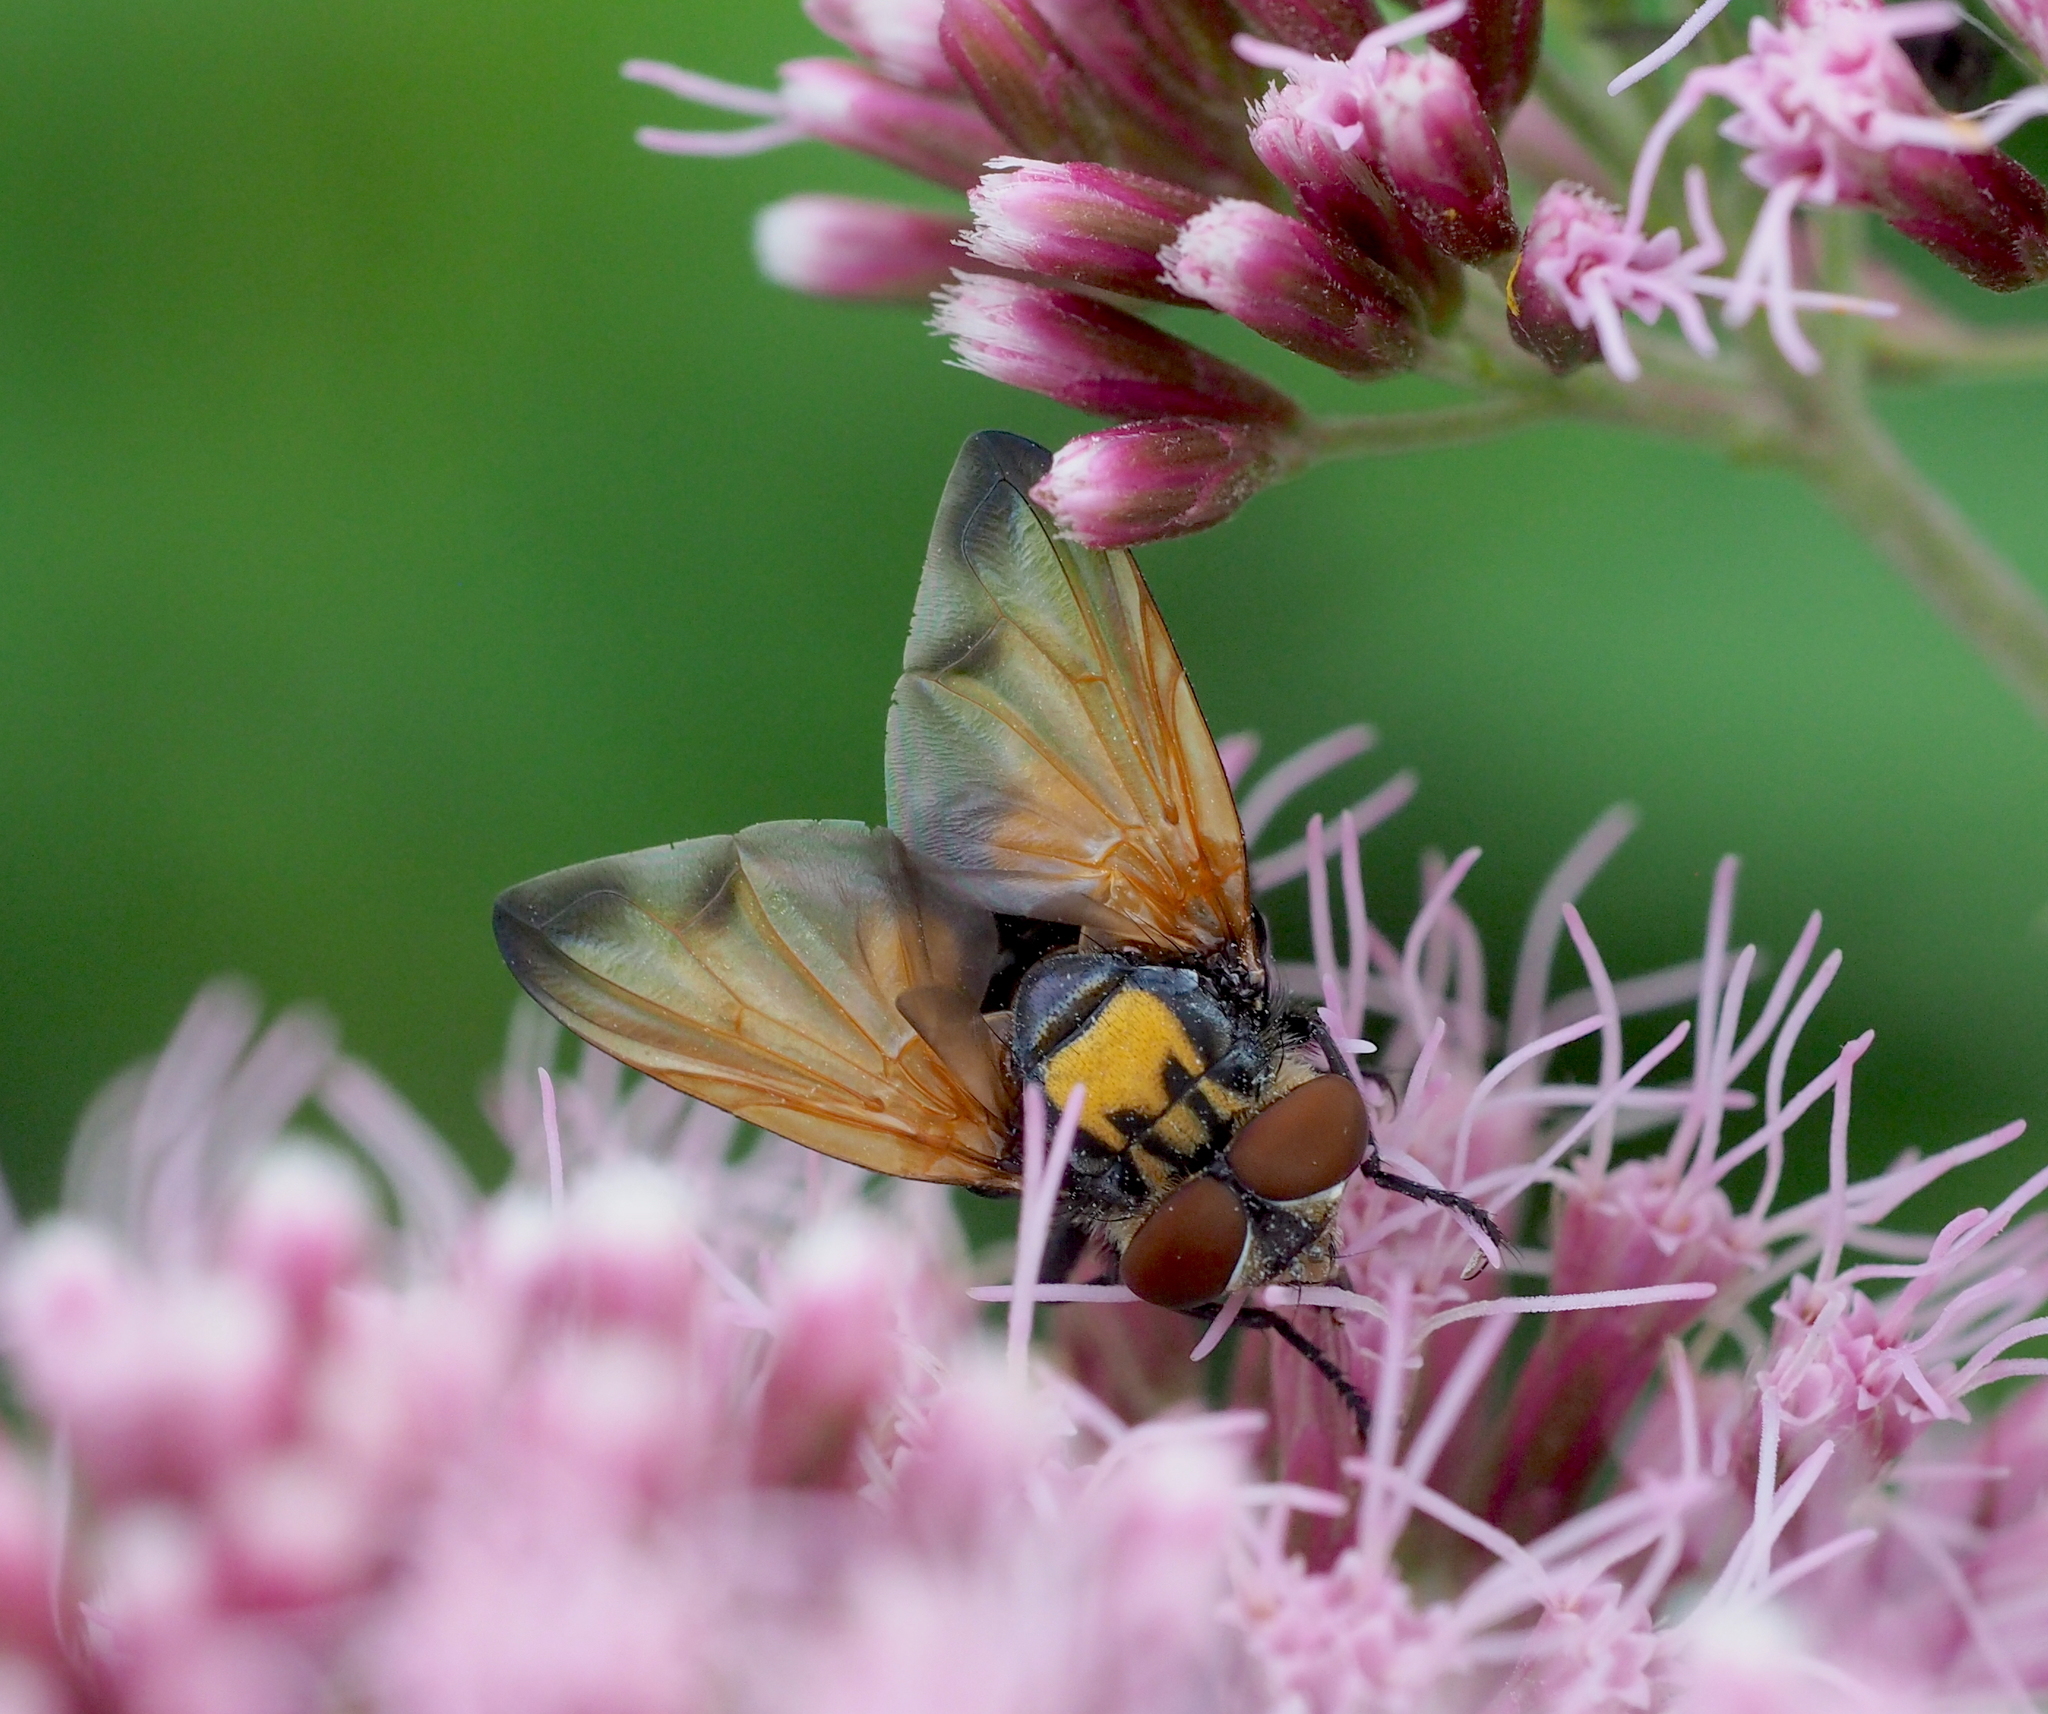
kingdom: Animalia
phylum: Arthropoda
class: Insecta
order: Diptera
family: Tachinidae
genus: Phasia
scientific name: Phasia aurigera
